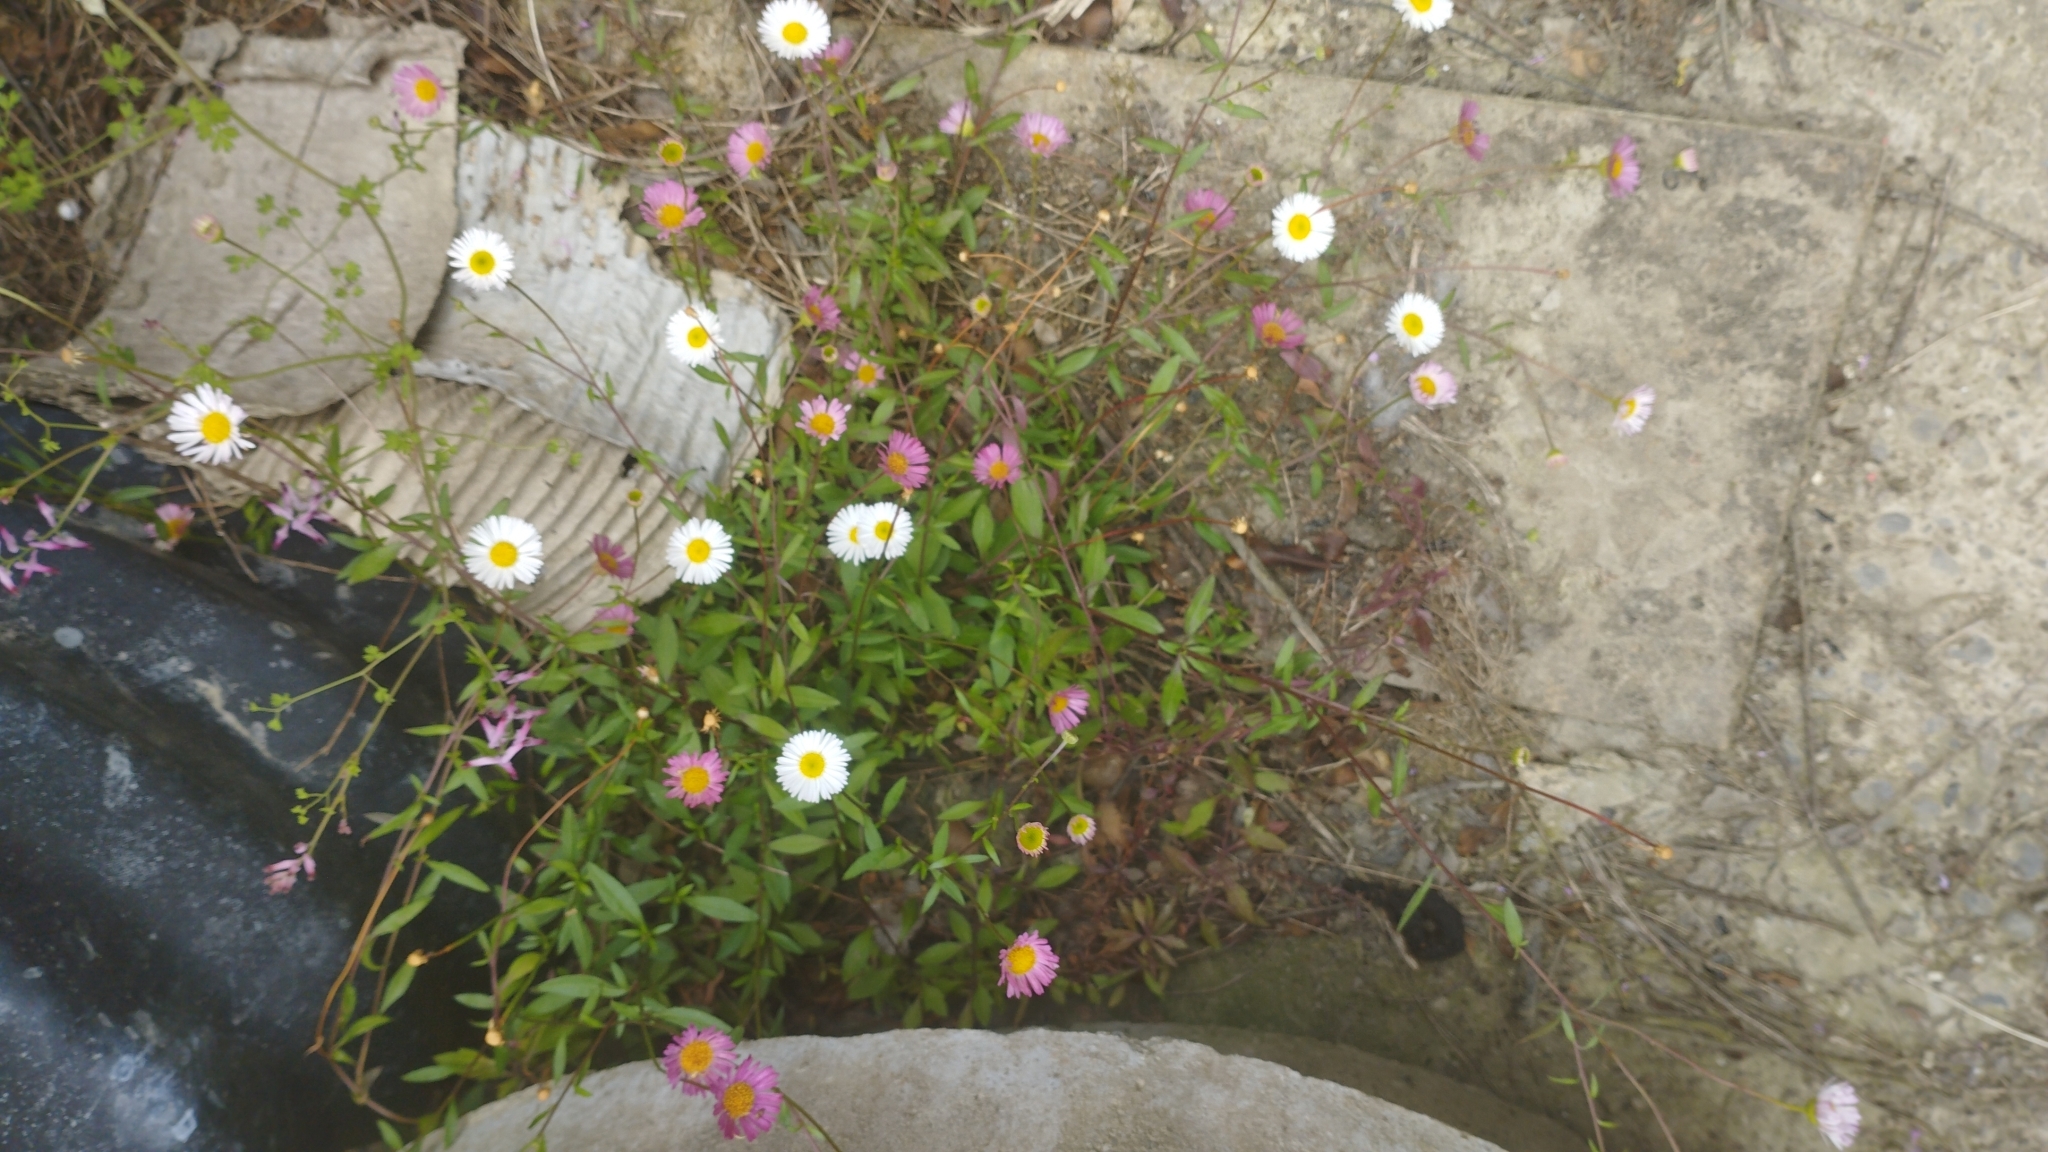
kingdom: Plantae
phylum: Tracheophyta
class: Magnoliopsida
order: Asterales
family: Asteraceae
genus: Erigeron
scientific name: Erigeron karvinskianus
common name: Mexican fleabane
